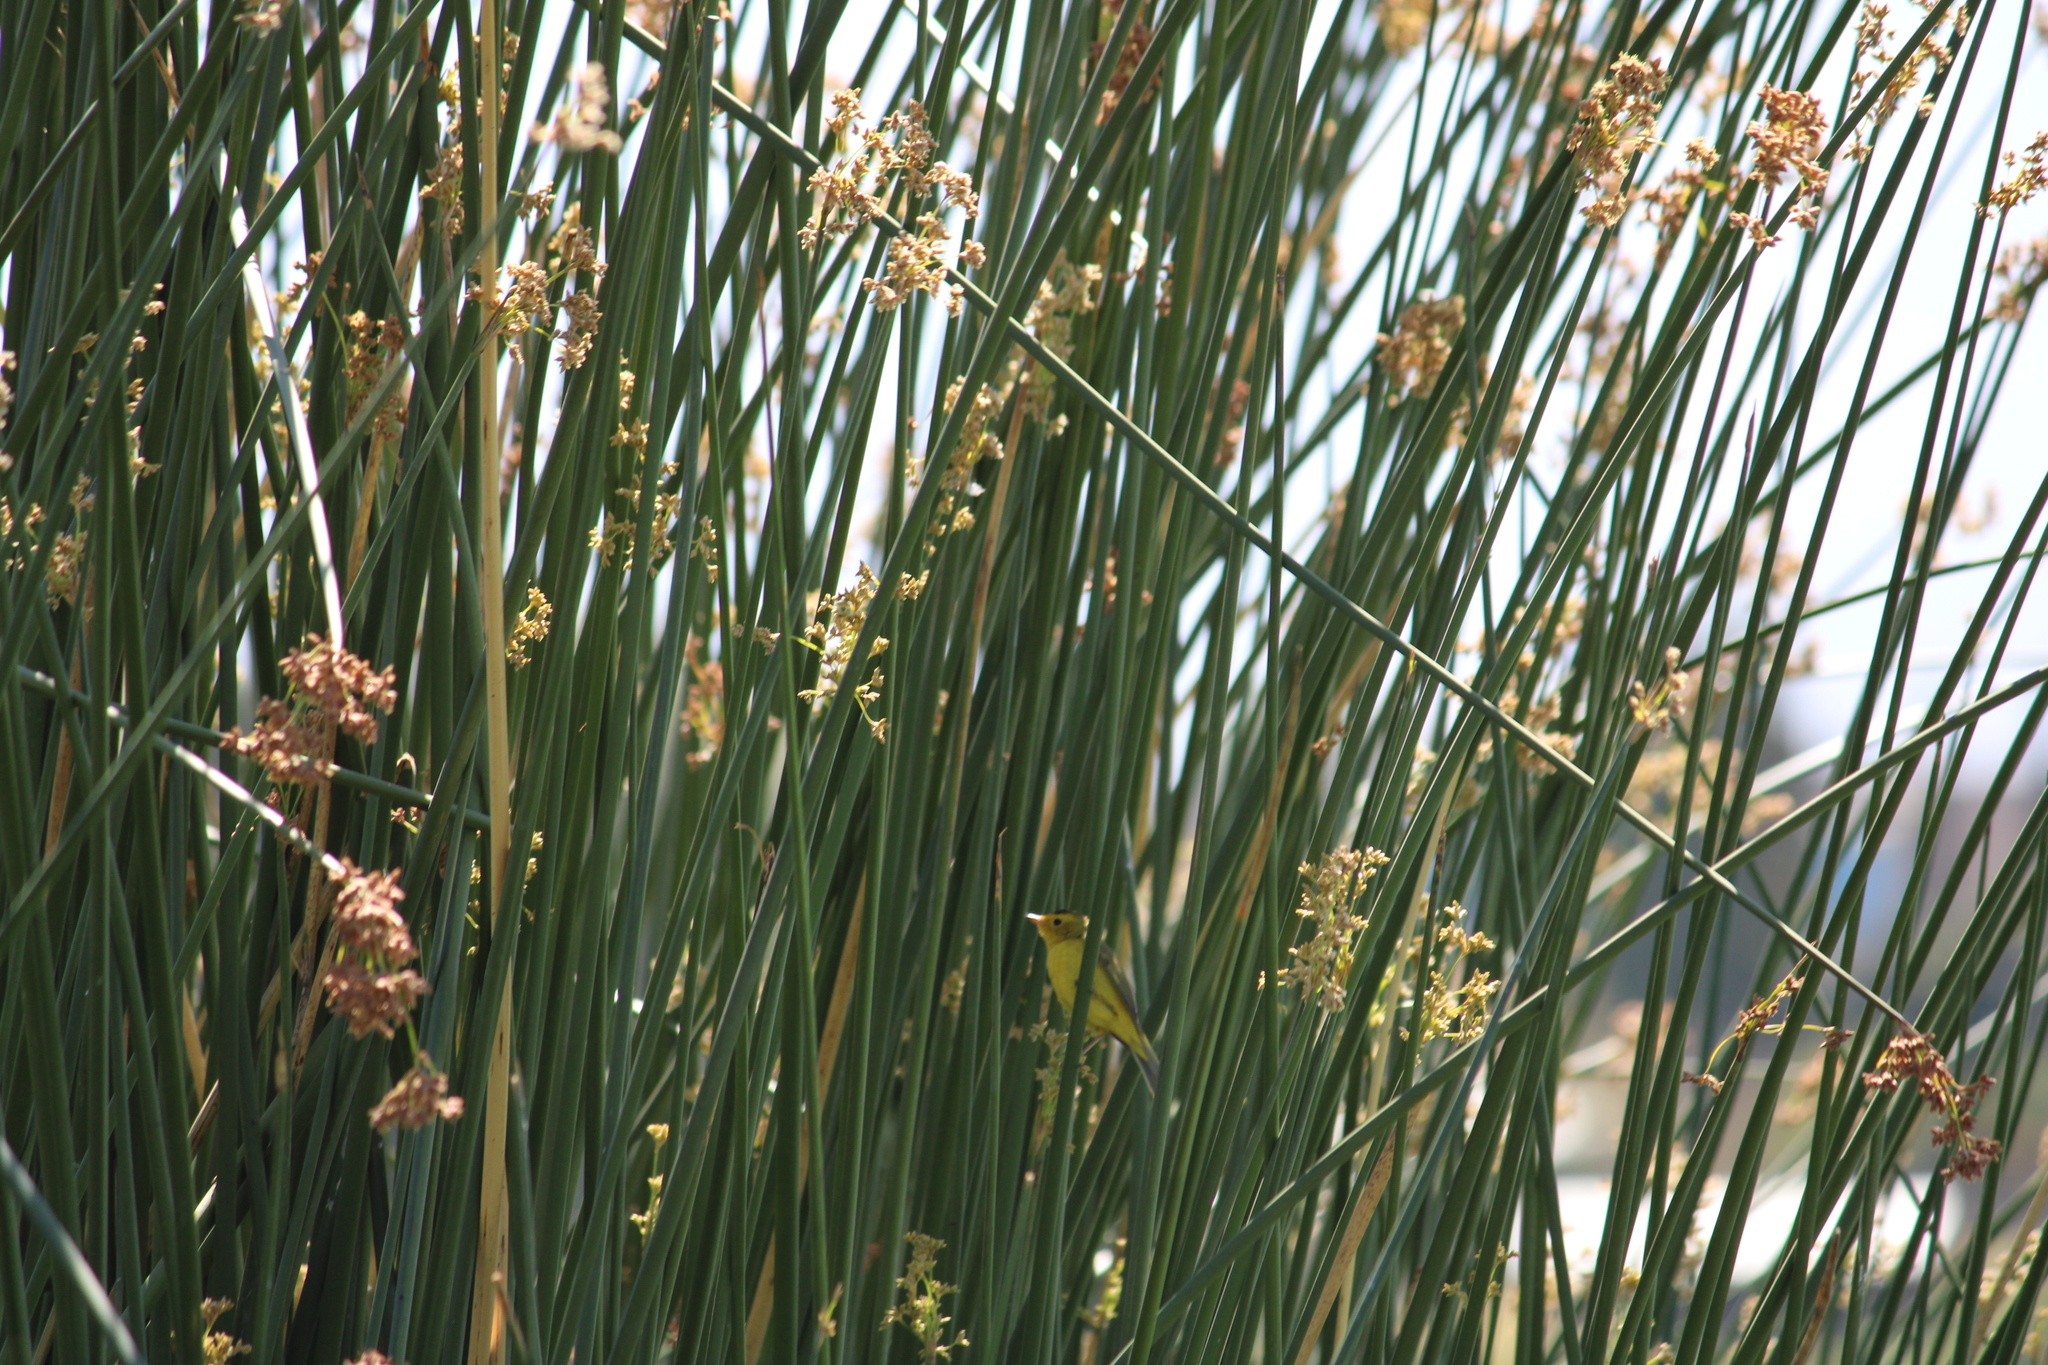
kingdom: Animalia
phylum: Chordata
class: Aves
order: Passeriformes
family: Parulidae
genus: Cardellina
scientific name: Cardellina pusilla
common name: Wilson's warbler
